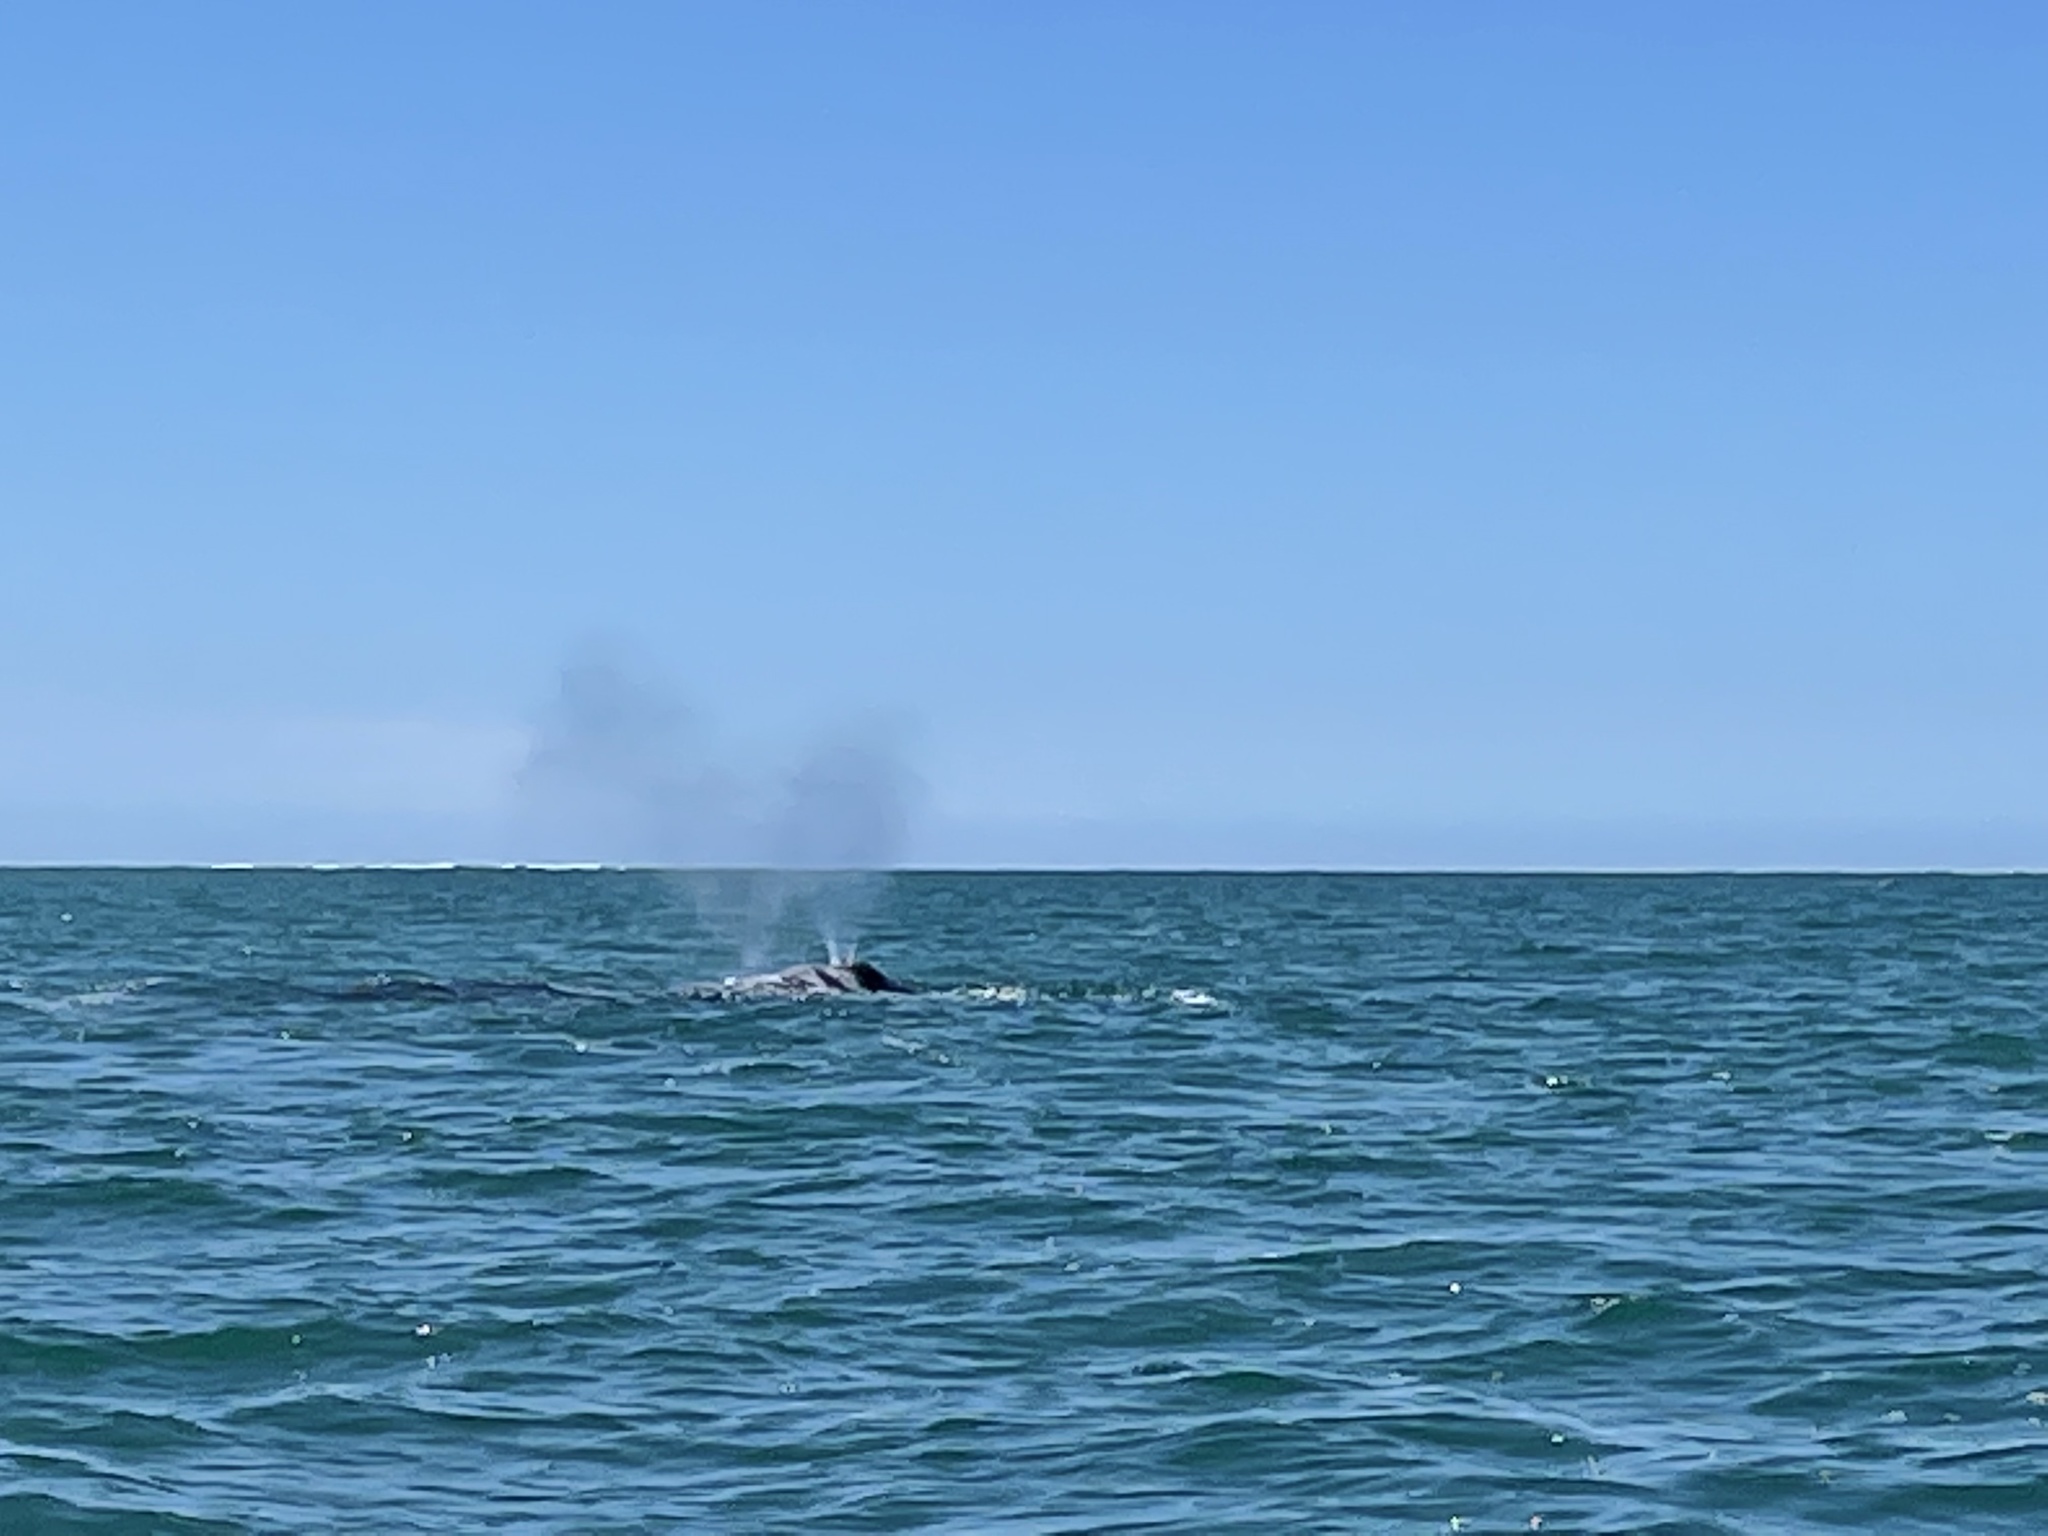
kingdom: Animalia
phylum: Chordata
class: Mammalia
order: Cetacea
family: Eschrichtiidae
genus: Eschrichtius
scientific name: Eschrichtius robustus
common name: Gray whale
